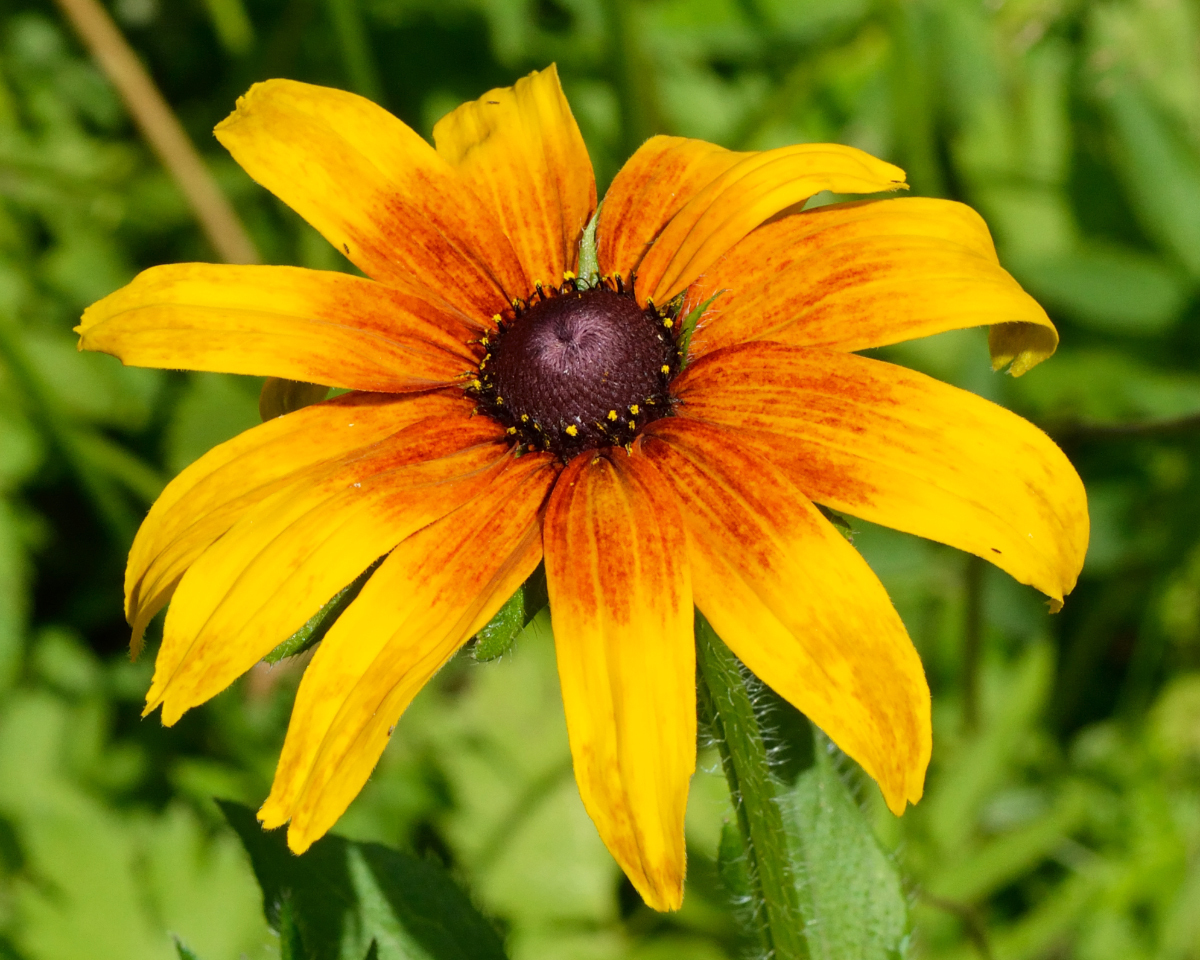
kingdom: Plantae
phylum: Tracheophyta
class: Magnoliopsida
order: Asterales
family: Asteraceae
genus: Rudbeckia
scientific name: Rudbeckia hirta
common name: Black-eyed-susan
